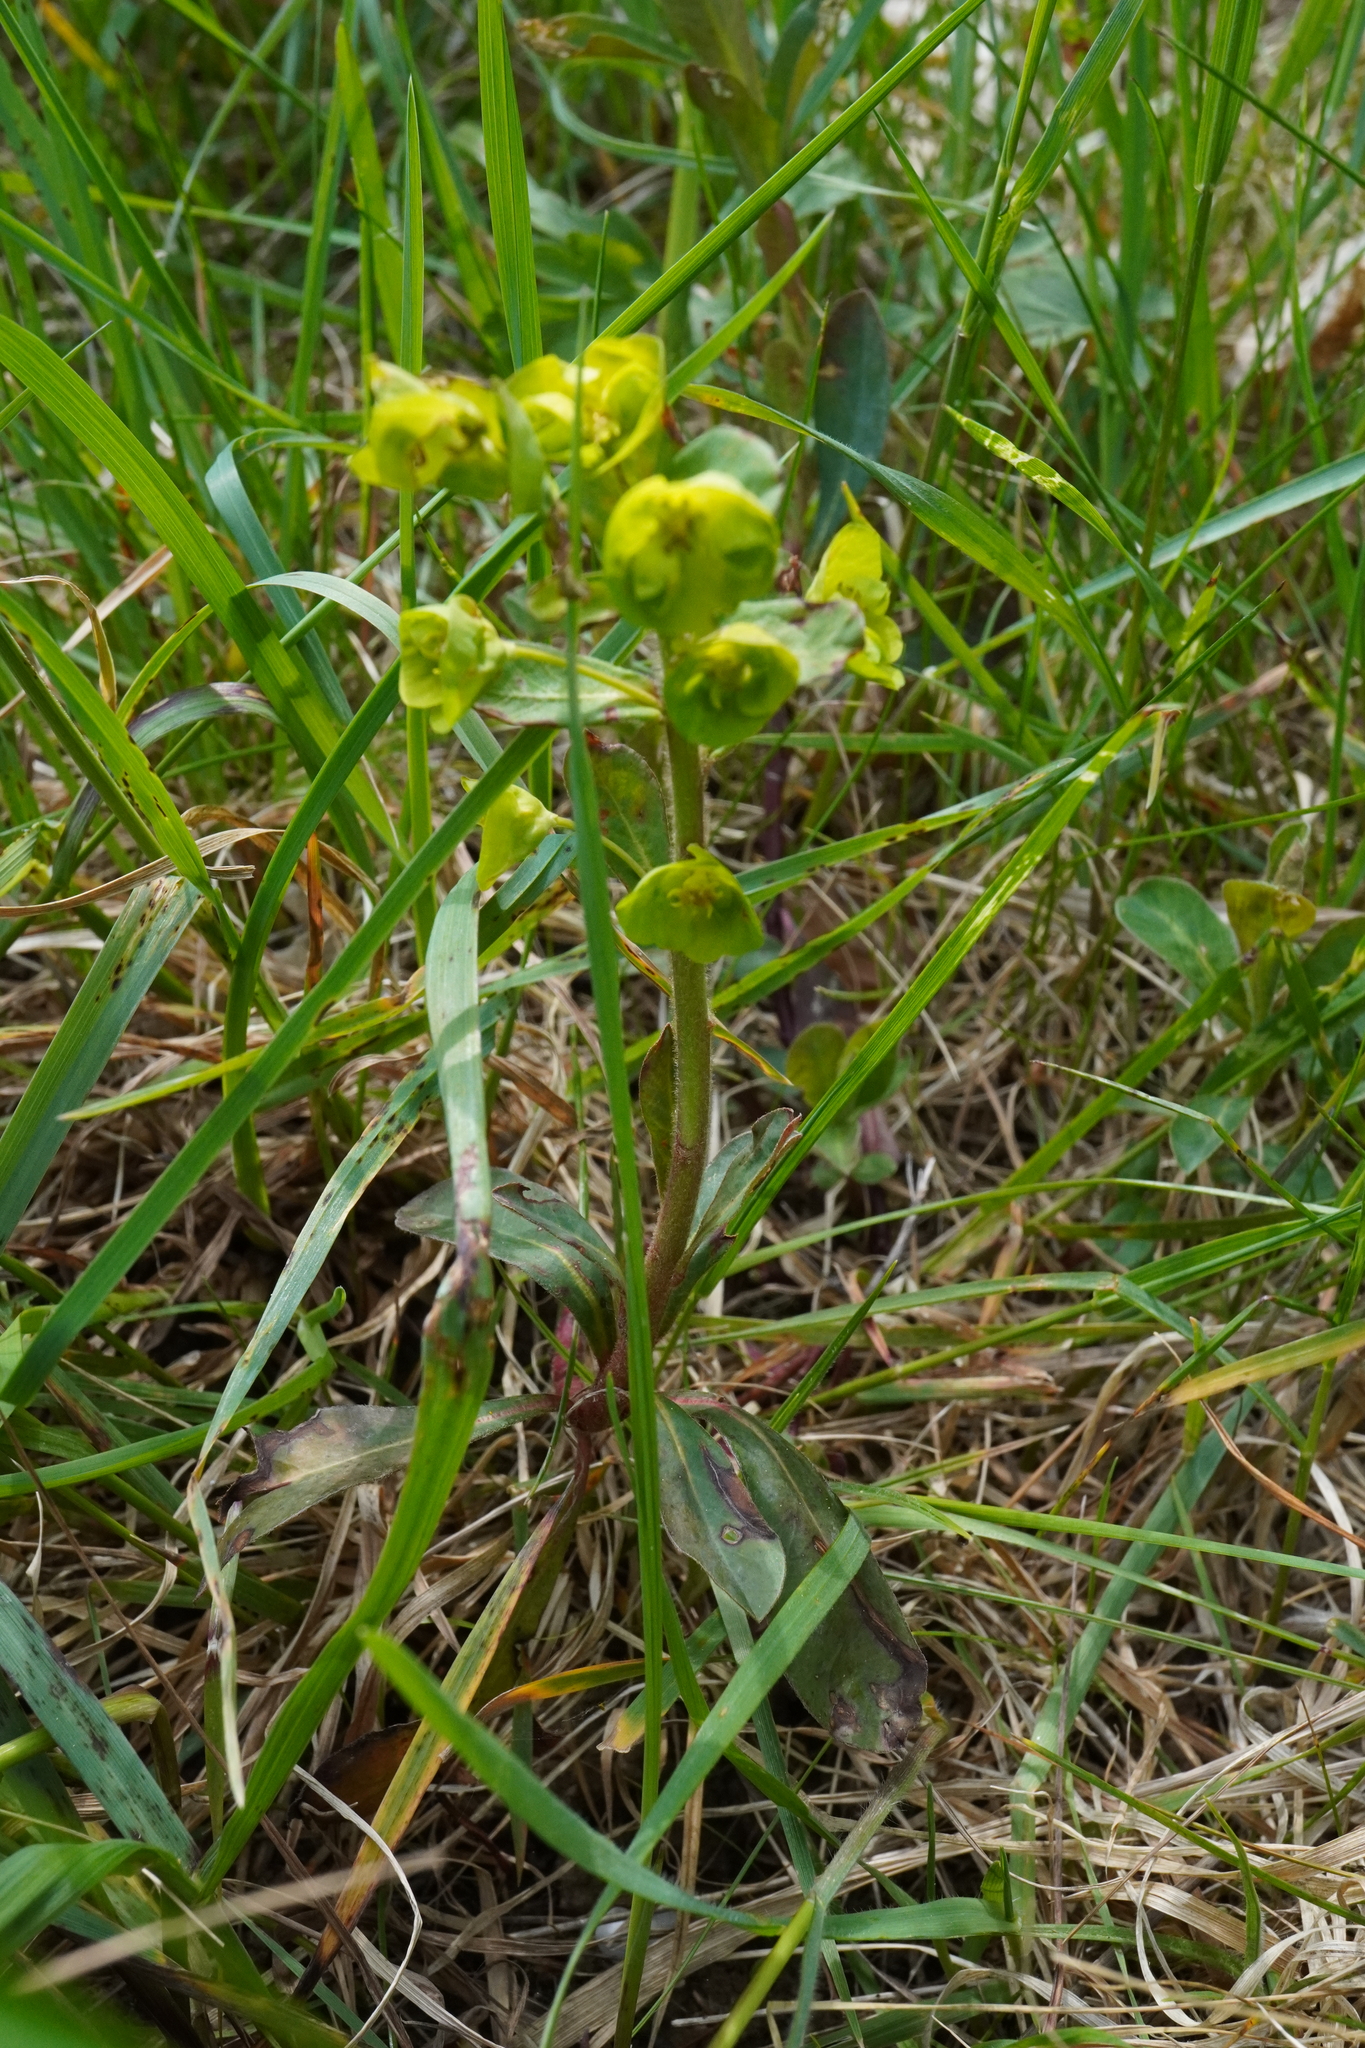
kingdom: Plantae
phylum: Tracheophyta
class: Magnoliopsida
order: Malpighiales
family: Euphorbiaceae
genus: Euphorbia
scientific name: Euphorbia amygdaloides
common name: Wood spurge
